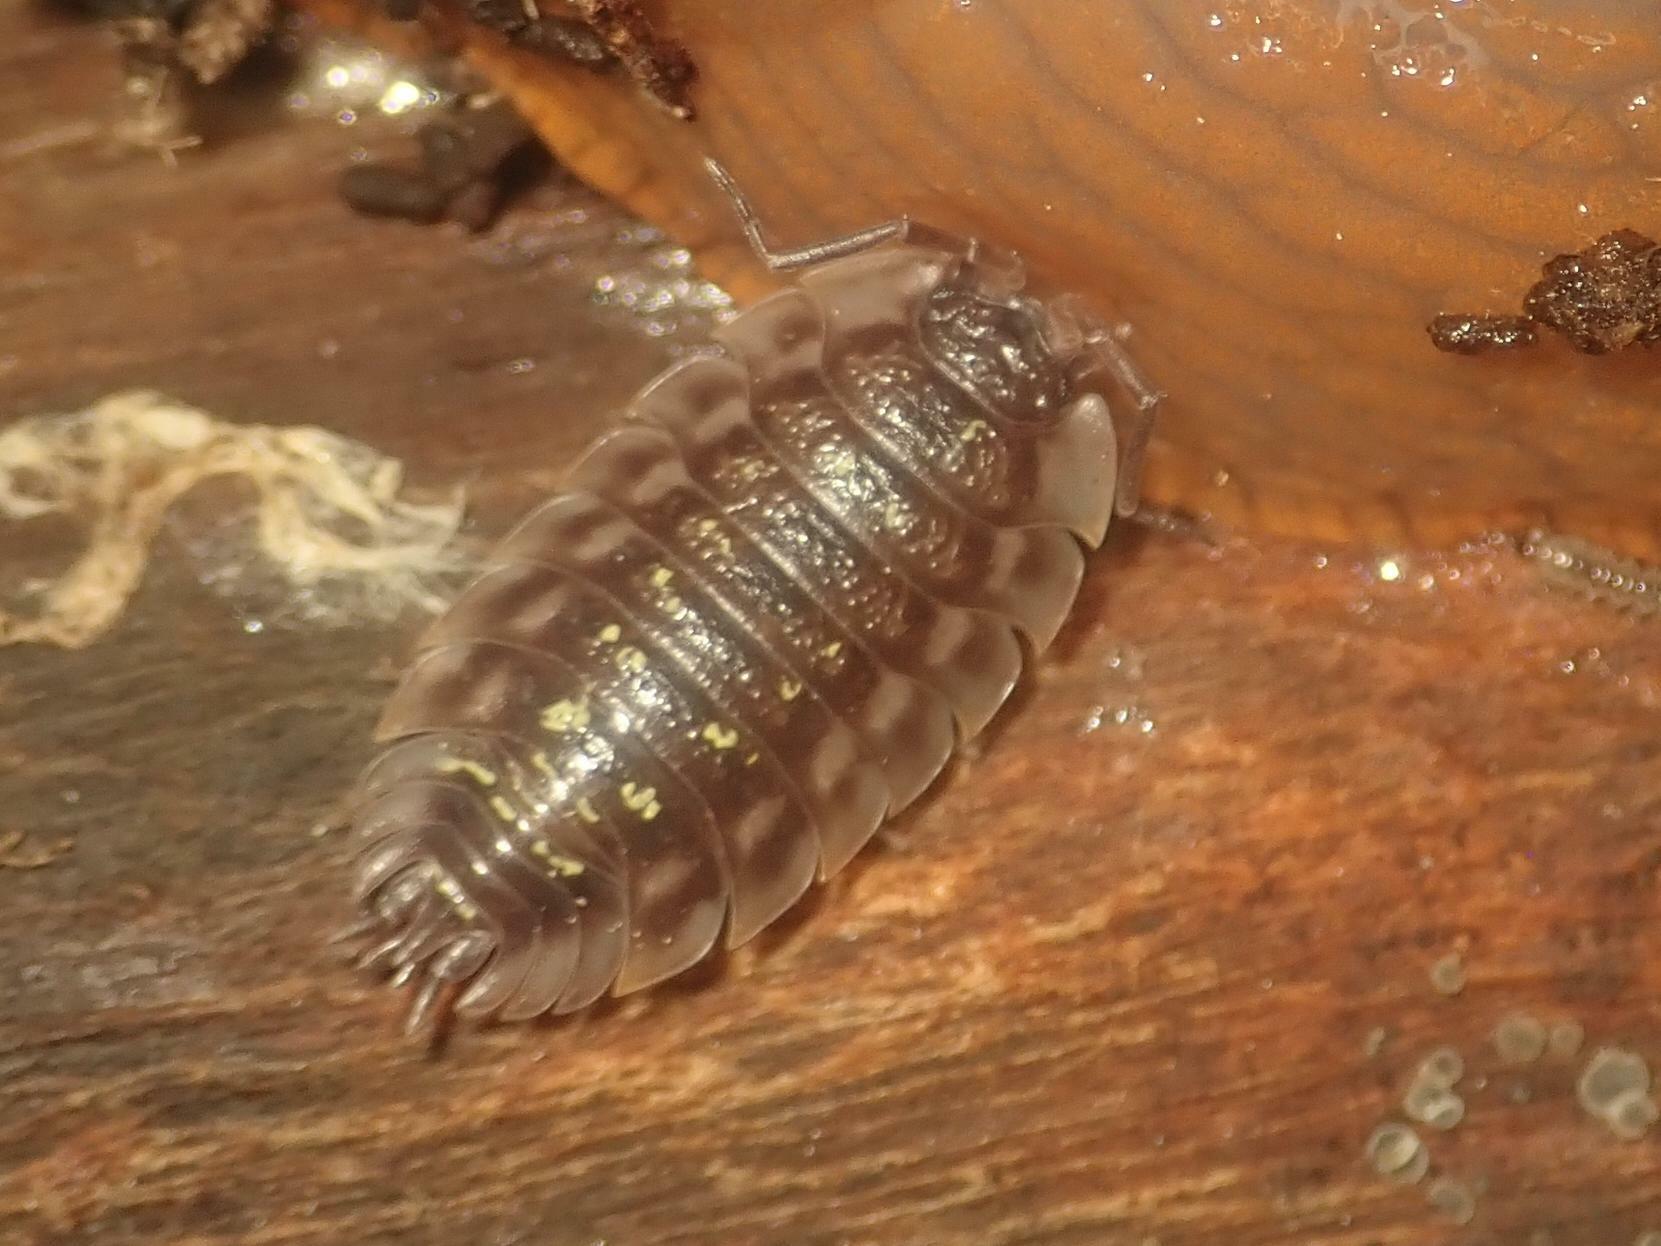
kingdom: Animalia
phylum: Arthropoda
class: Malacostraca
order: Isopoda
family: Oniscidae
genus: Oniscus
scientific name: Oniscus asellus
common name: Common shiny woodlouse
